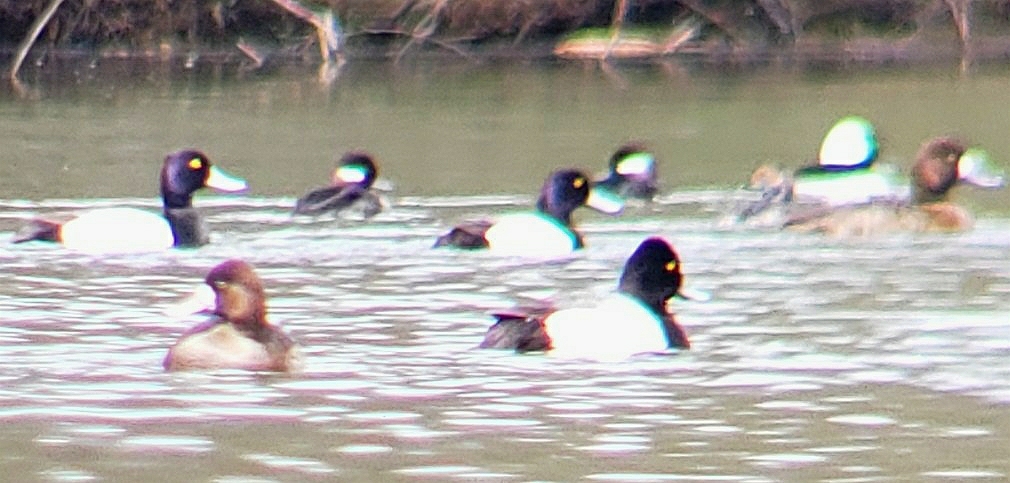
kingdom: Animalia
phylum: Chordata
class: Aves
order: Anseriformes
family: Anatidae
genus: Aythya
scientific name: Aythya affinis
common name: Lesser scaup
